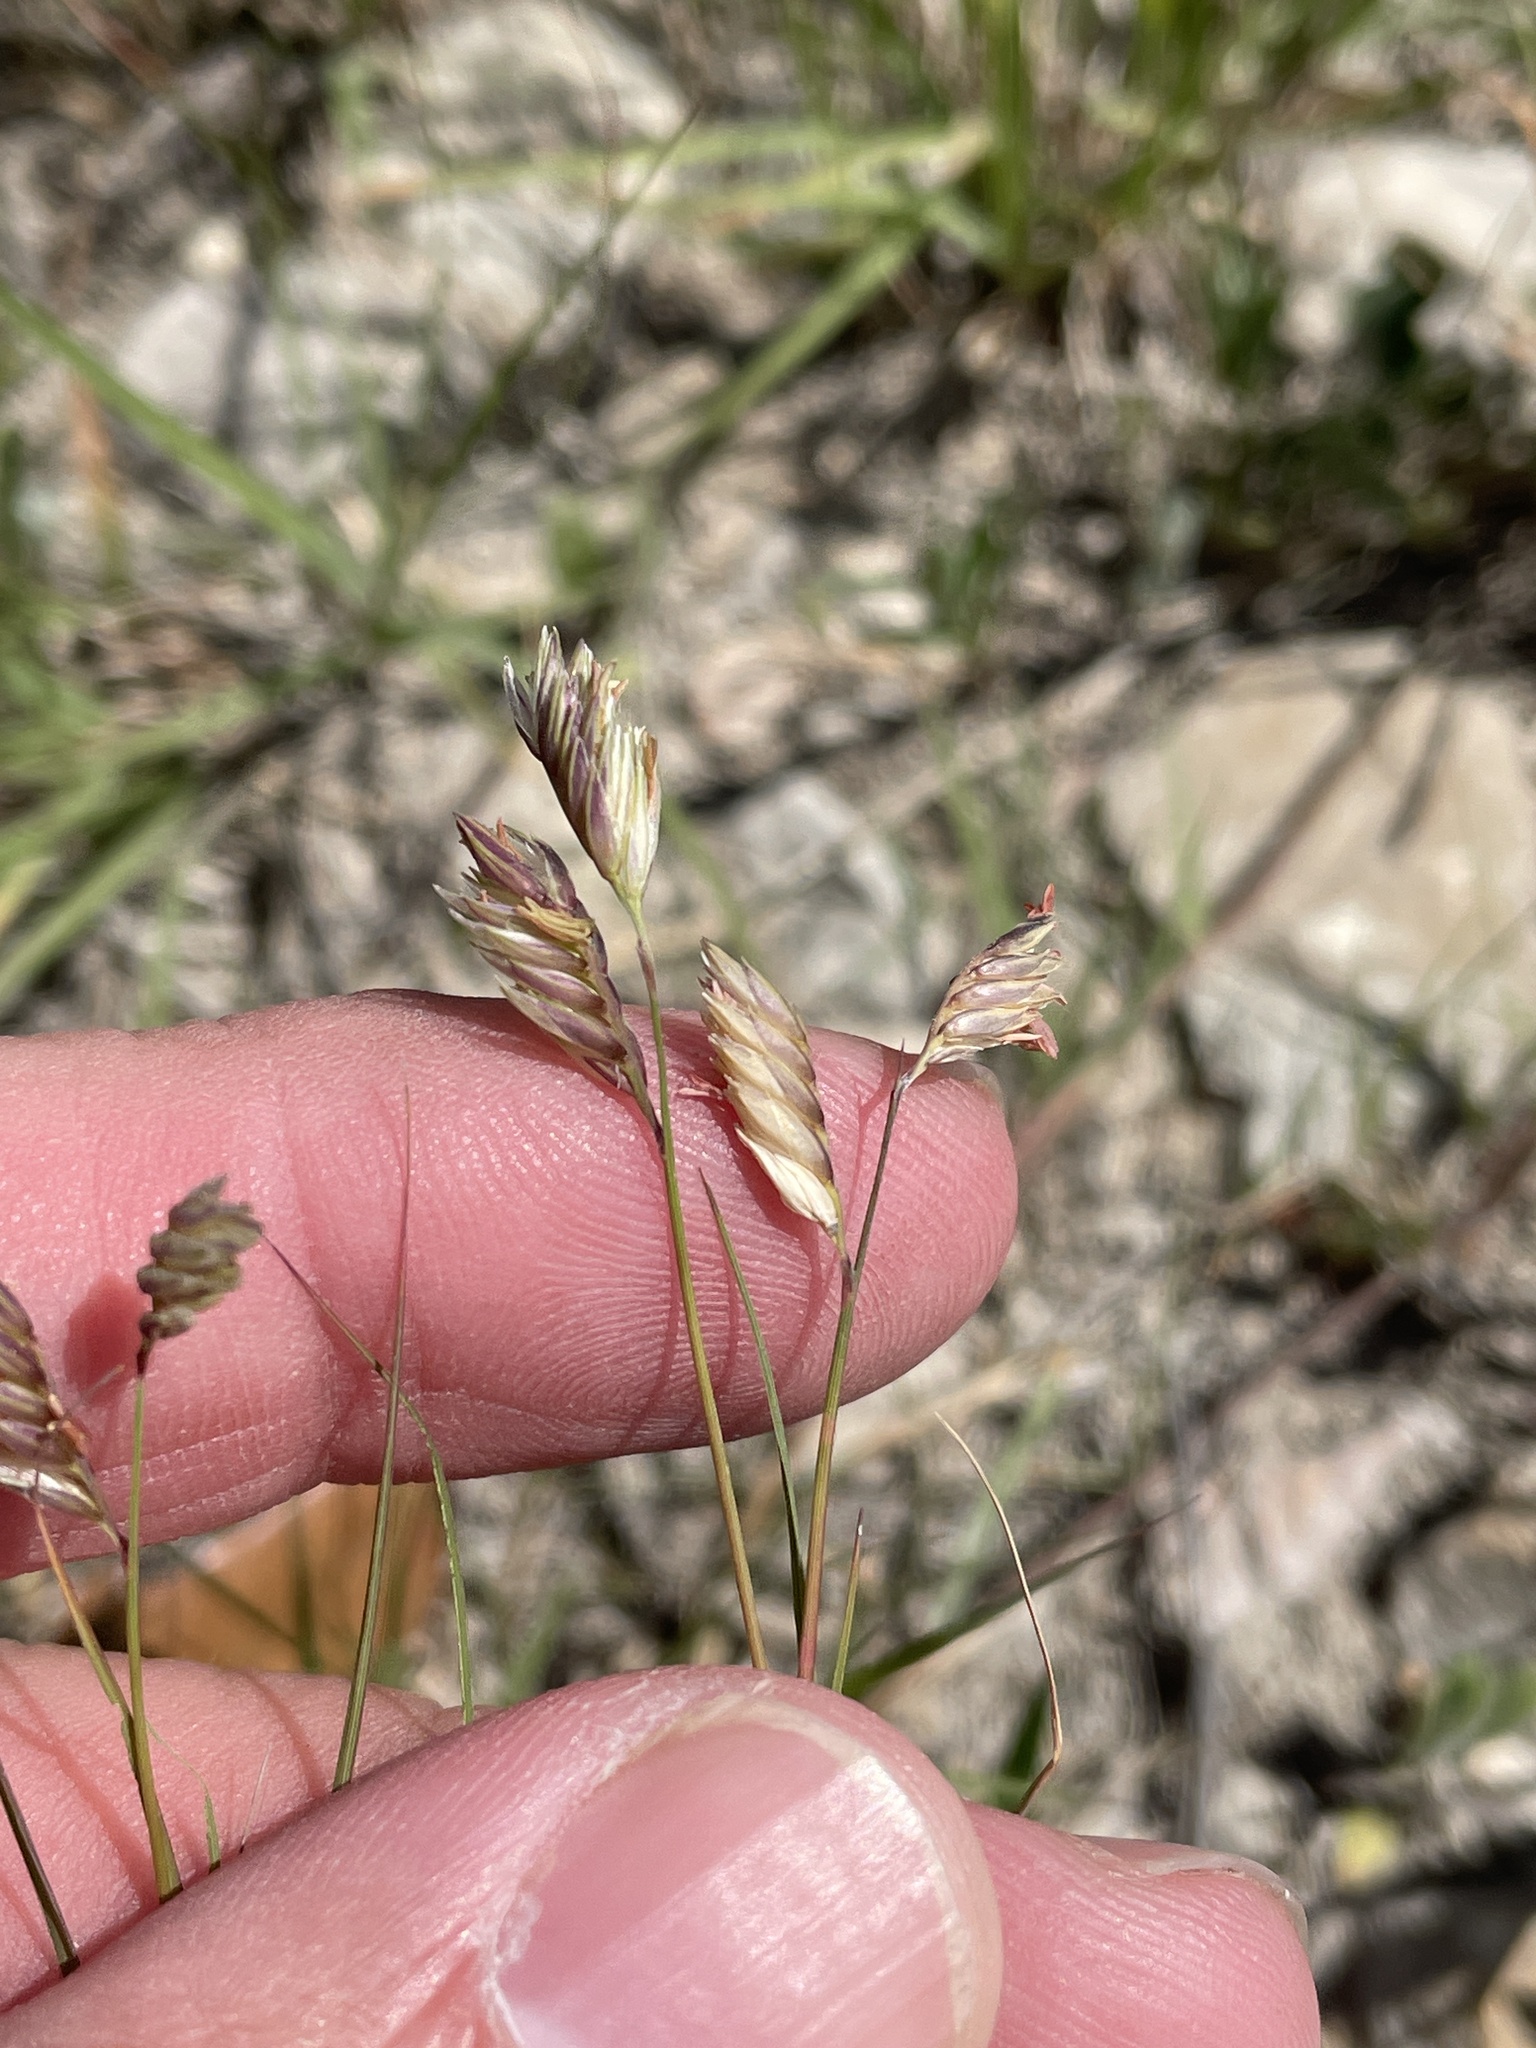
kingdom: Plantae
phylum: Tracheophyta
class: Liliopsida
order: Poales
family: Poaceae
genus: Bouteloua
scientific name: Bouteloua dactyloides
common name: Buffalo grass
